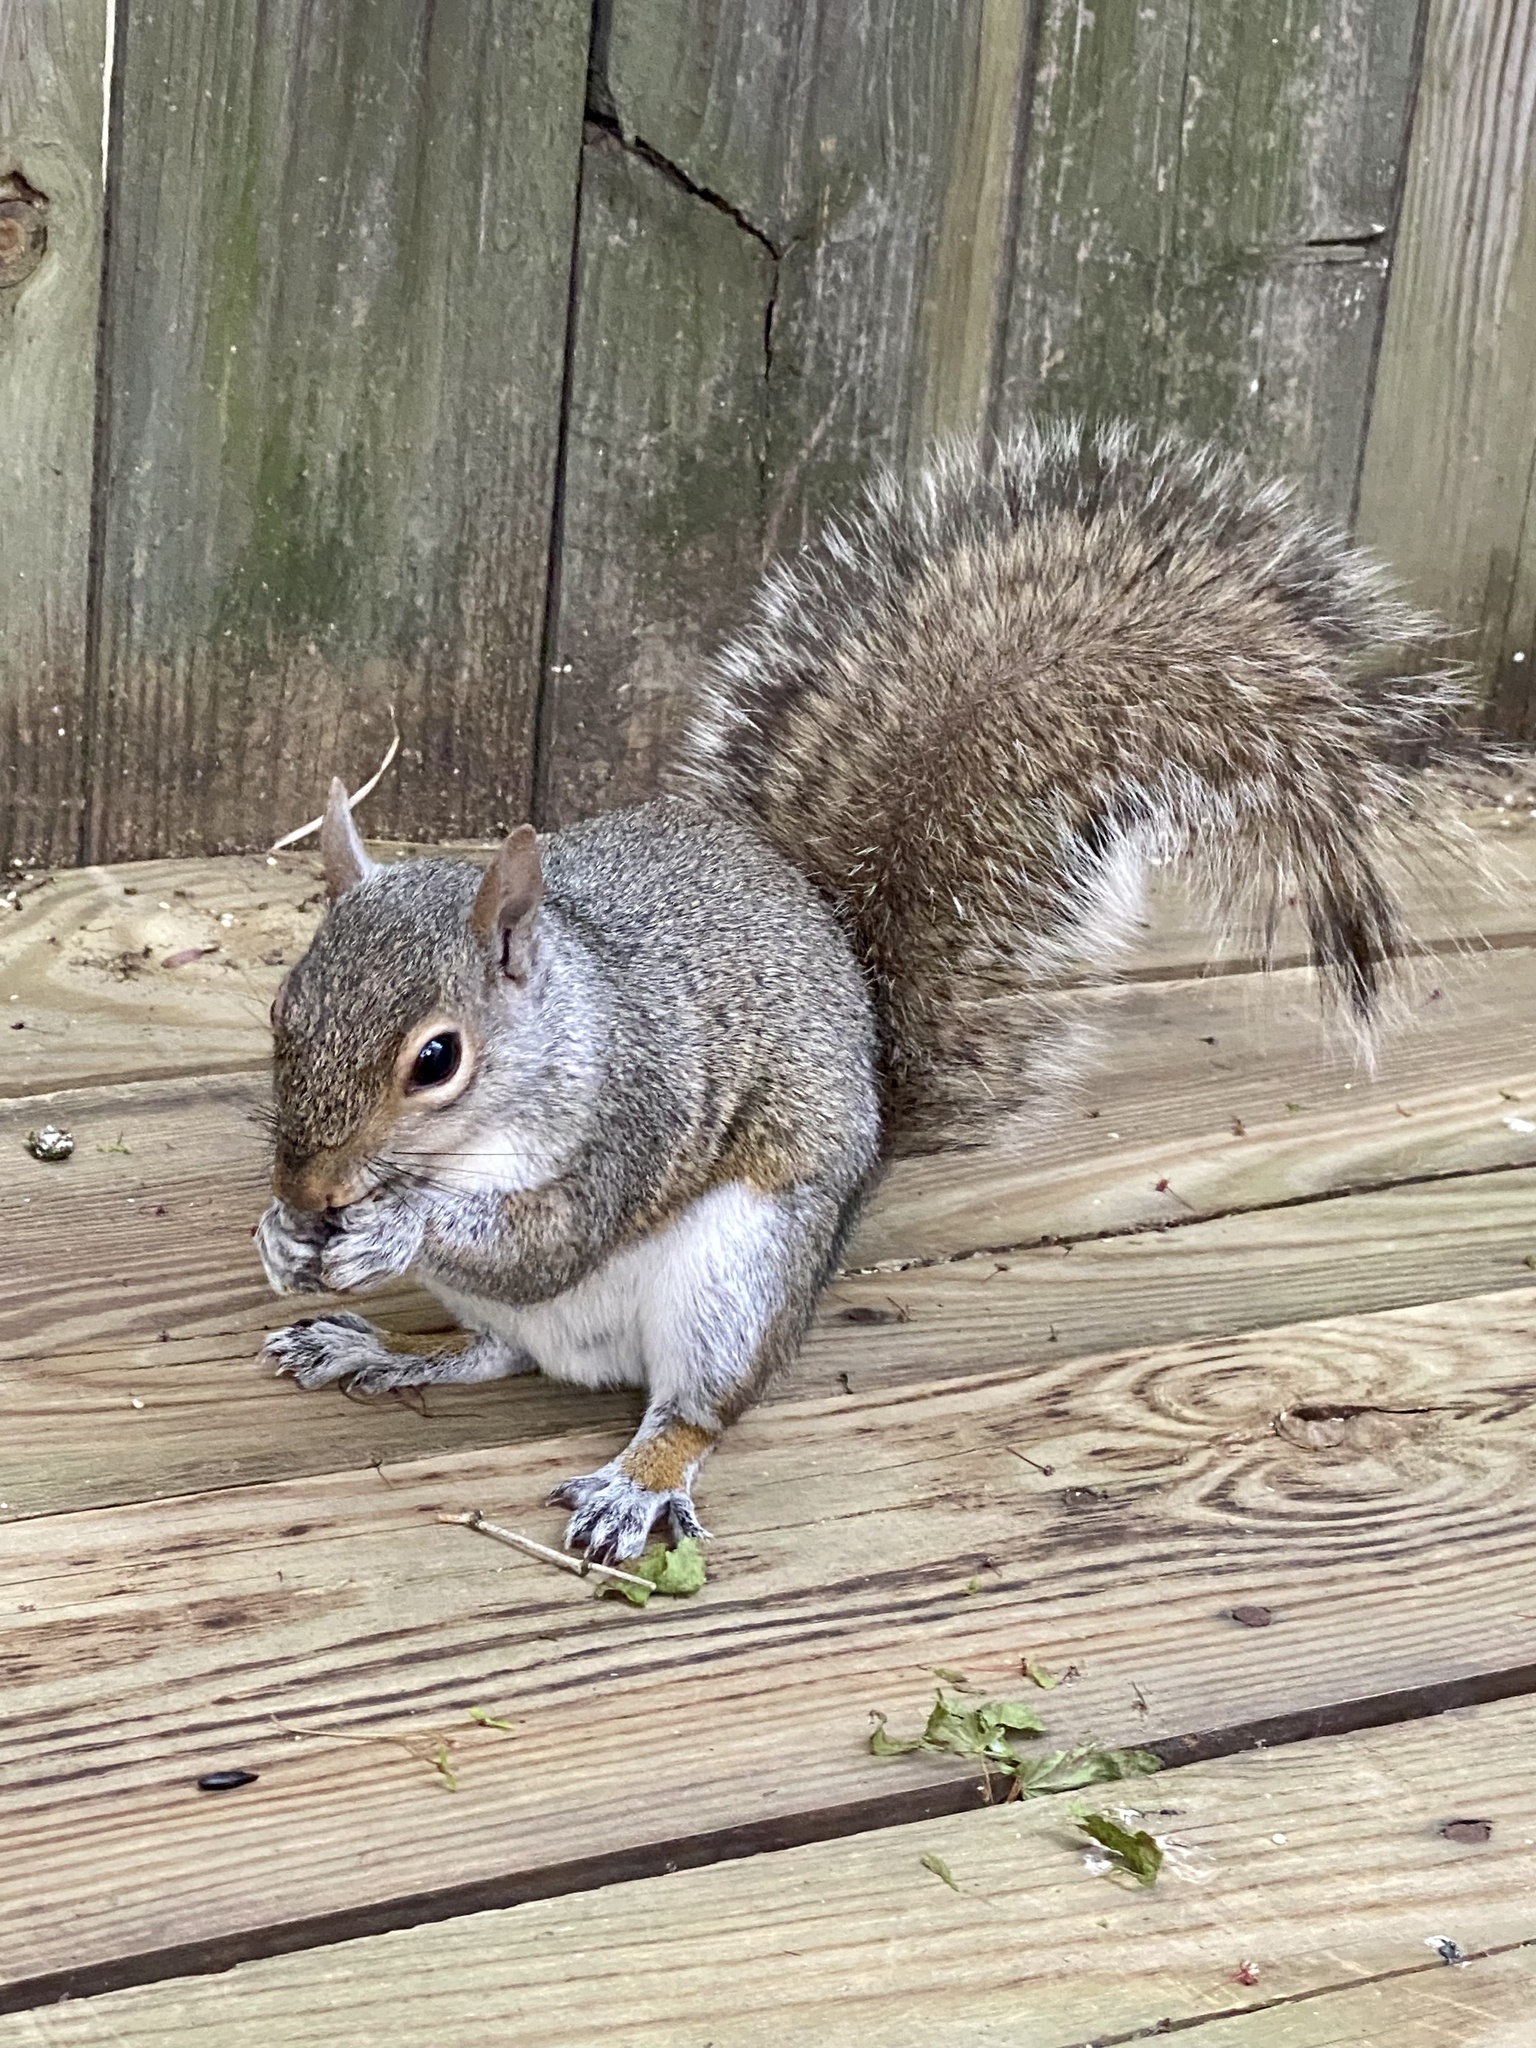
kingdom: Animalia
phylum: Chordata
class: Mammalia
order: Rodentia
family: Sciuridae
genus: Sciurus
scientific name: Sciurus carolinensis
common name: Eastern gray squirrel
